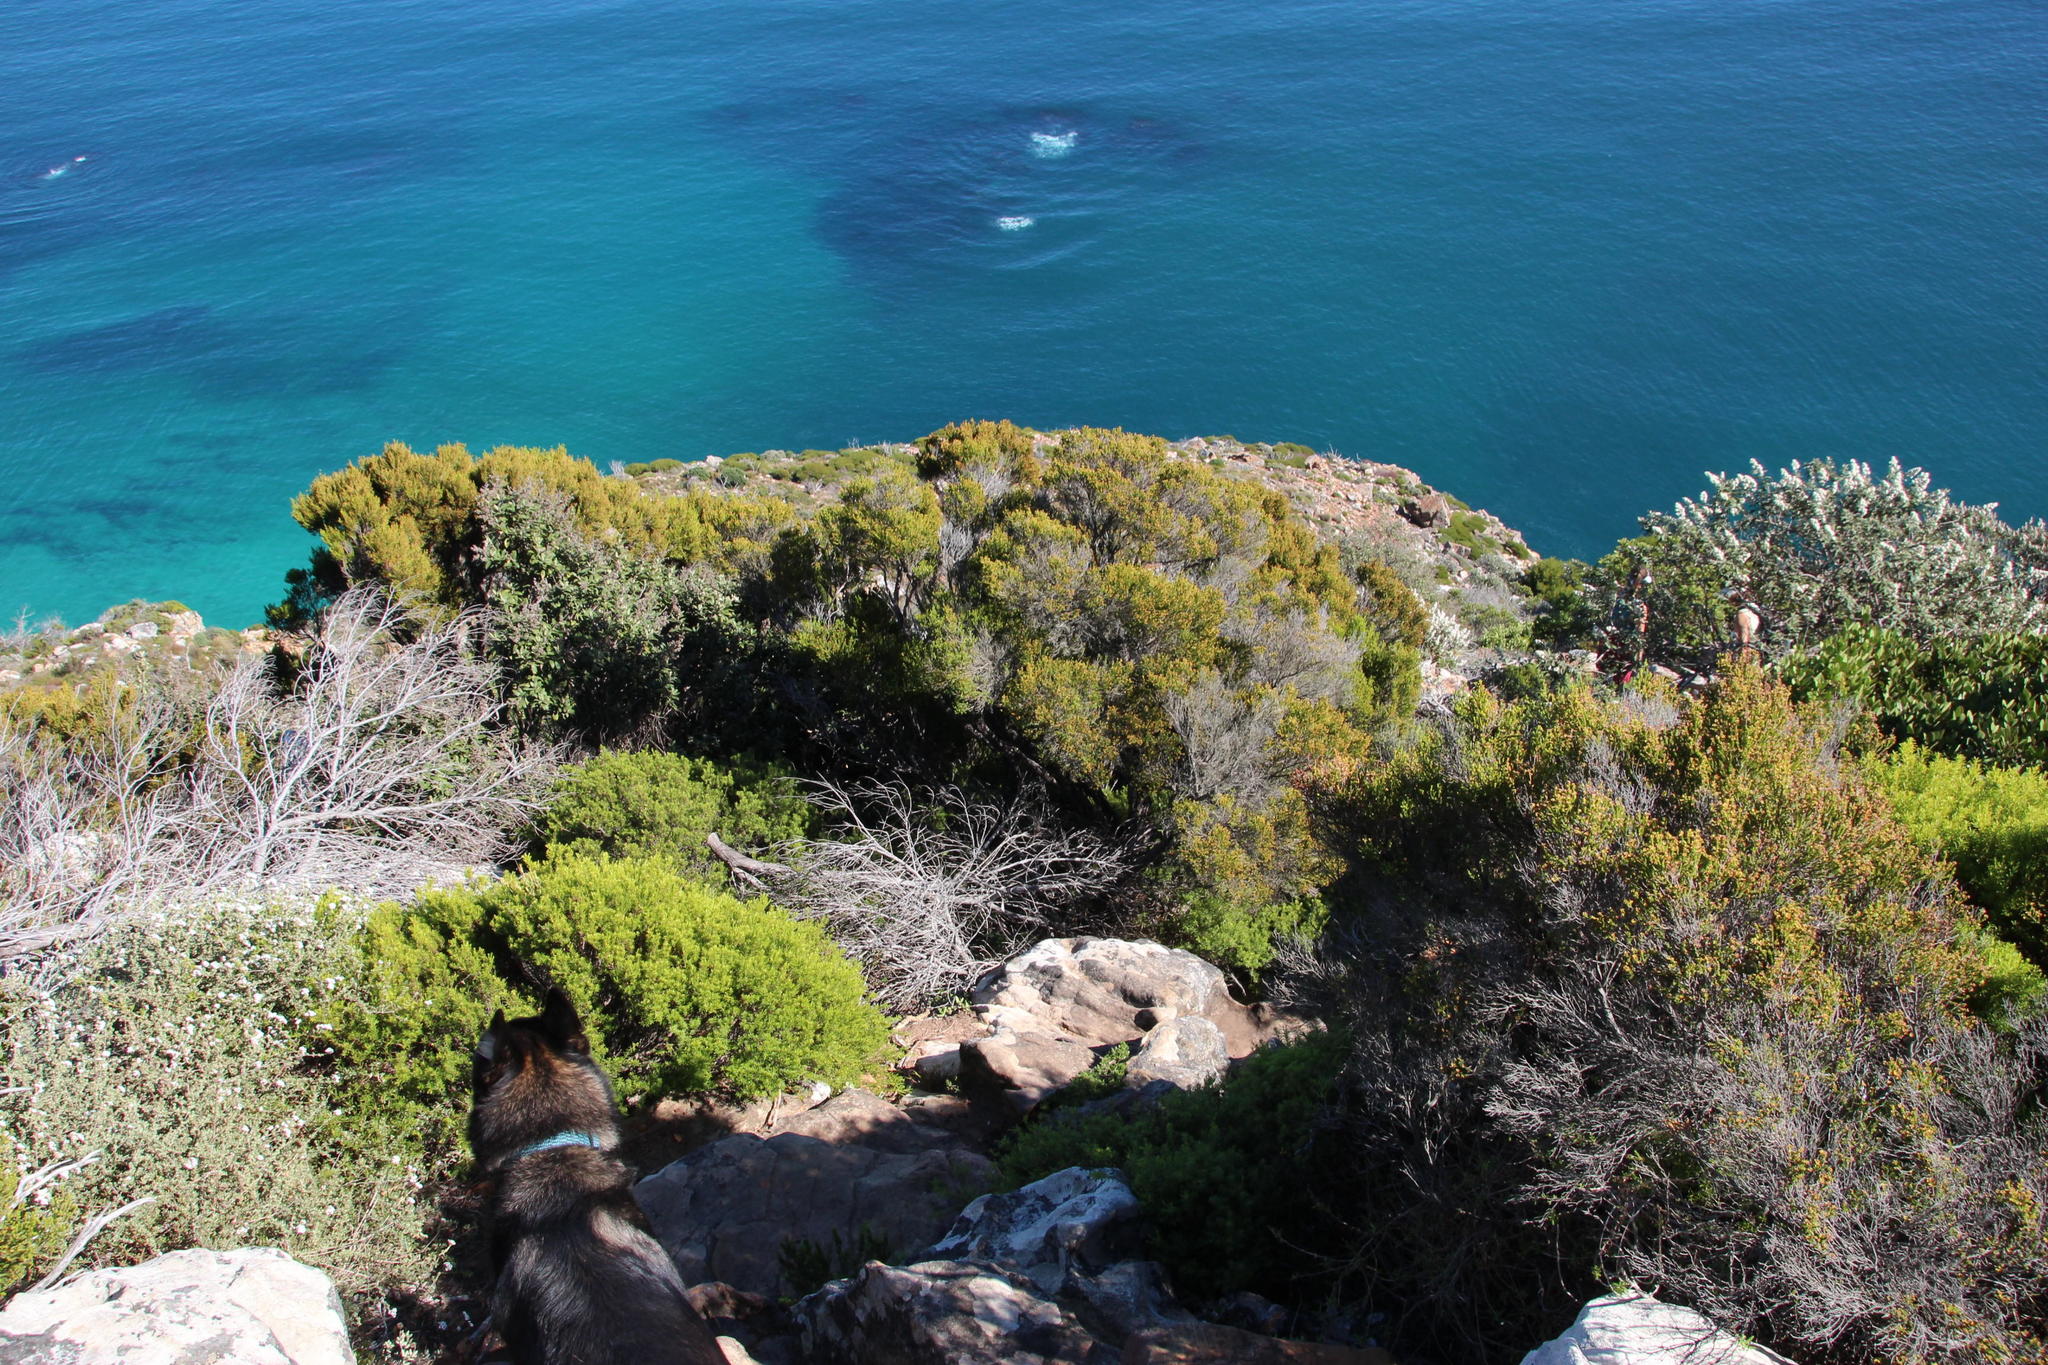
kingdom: Plantae
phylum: Tracheophyta
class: Magnoliopsida
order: Ericales
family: Ericaceae
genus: Erica
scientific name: Erica tristis
